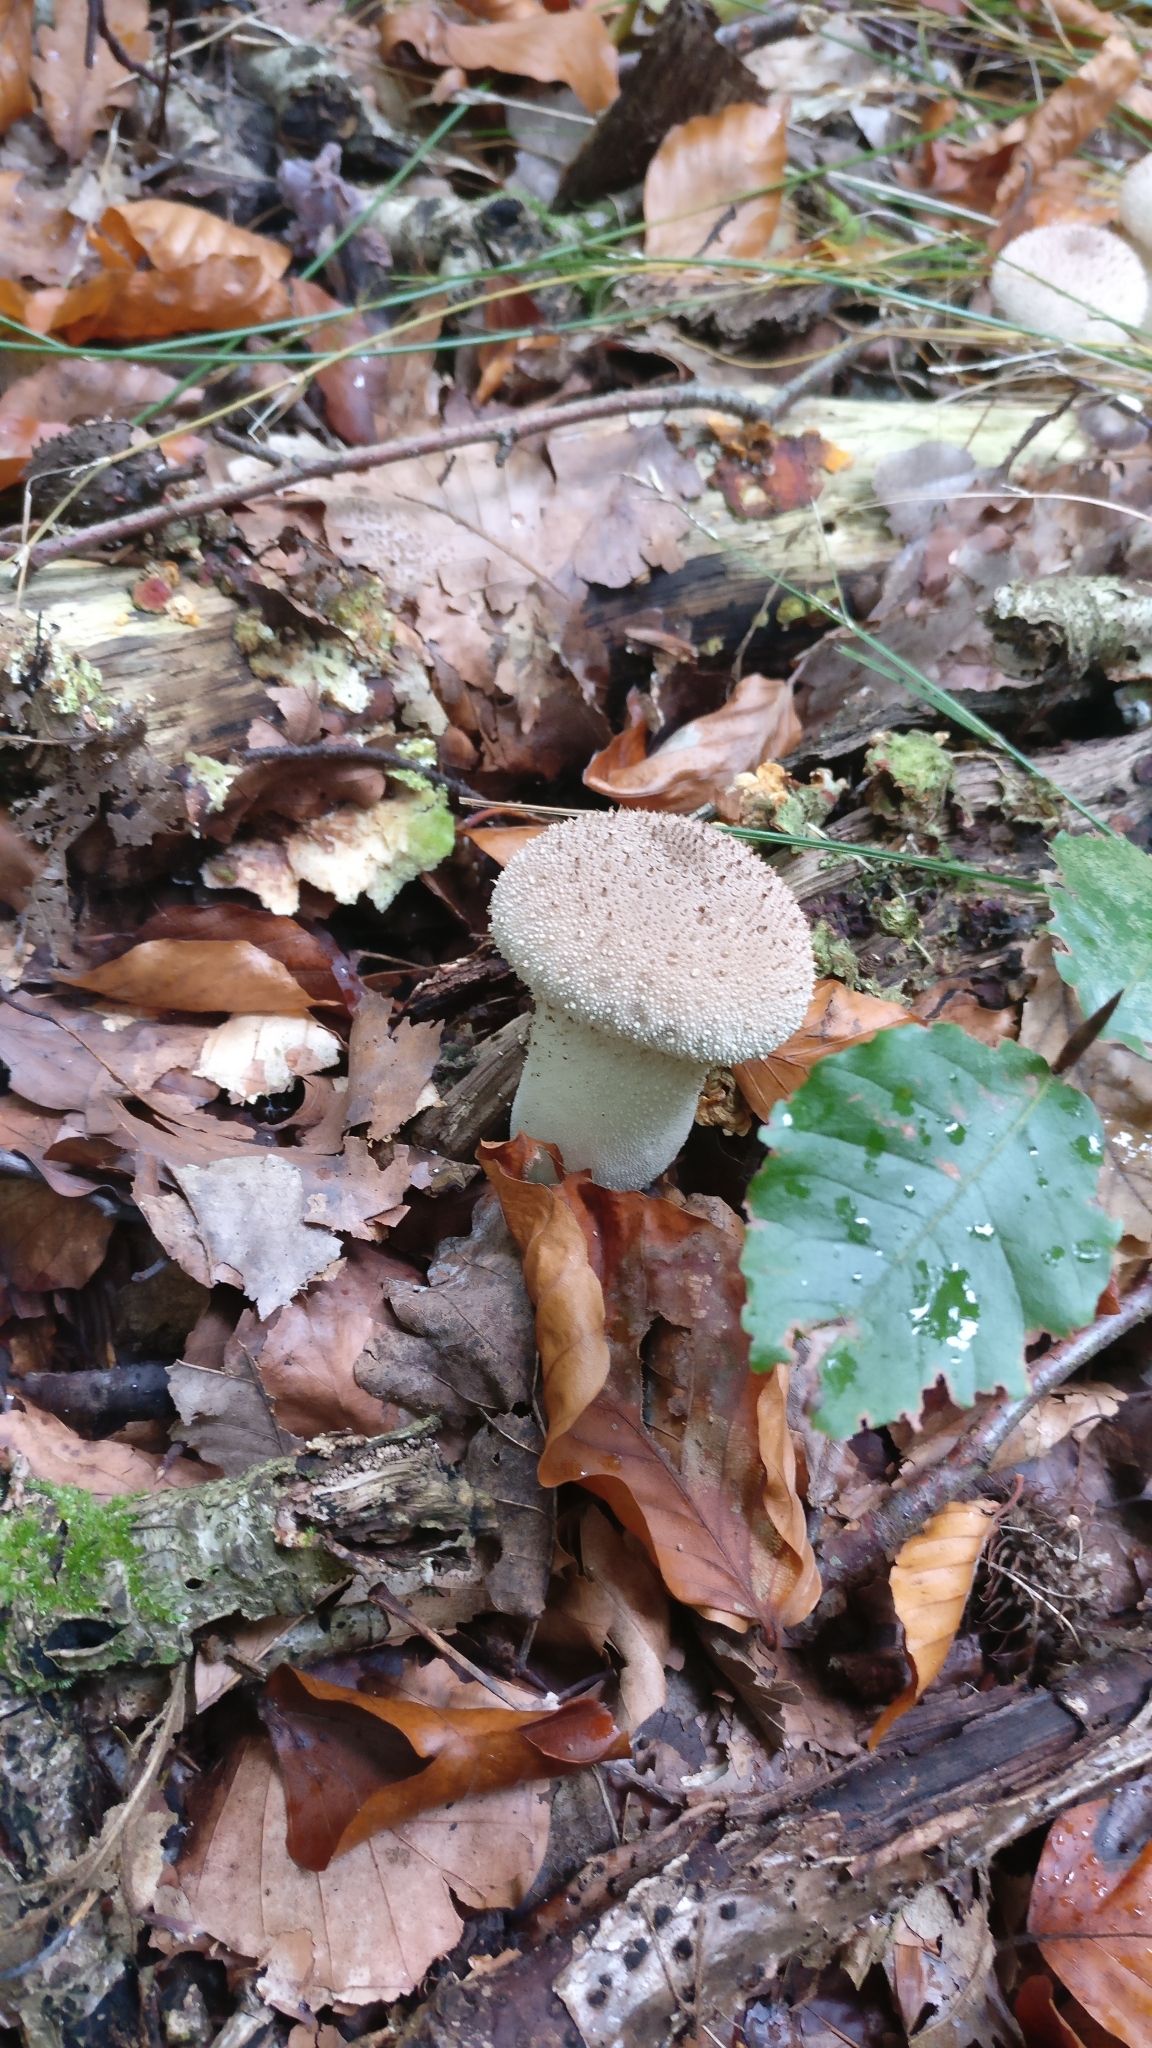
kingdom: Fungi
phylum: Basidiomycota
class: Agaricomycetes
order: Agaricales
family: Lycoperdaceae
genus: Lycoperdon
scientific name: Lycoperdon perlatum
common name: Common puffball
